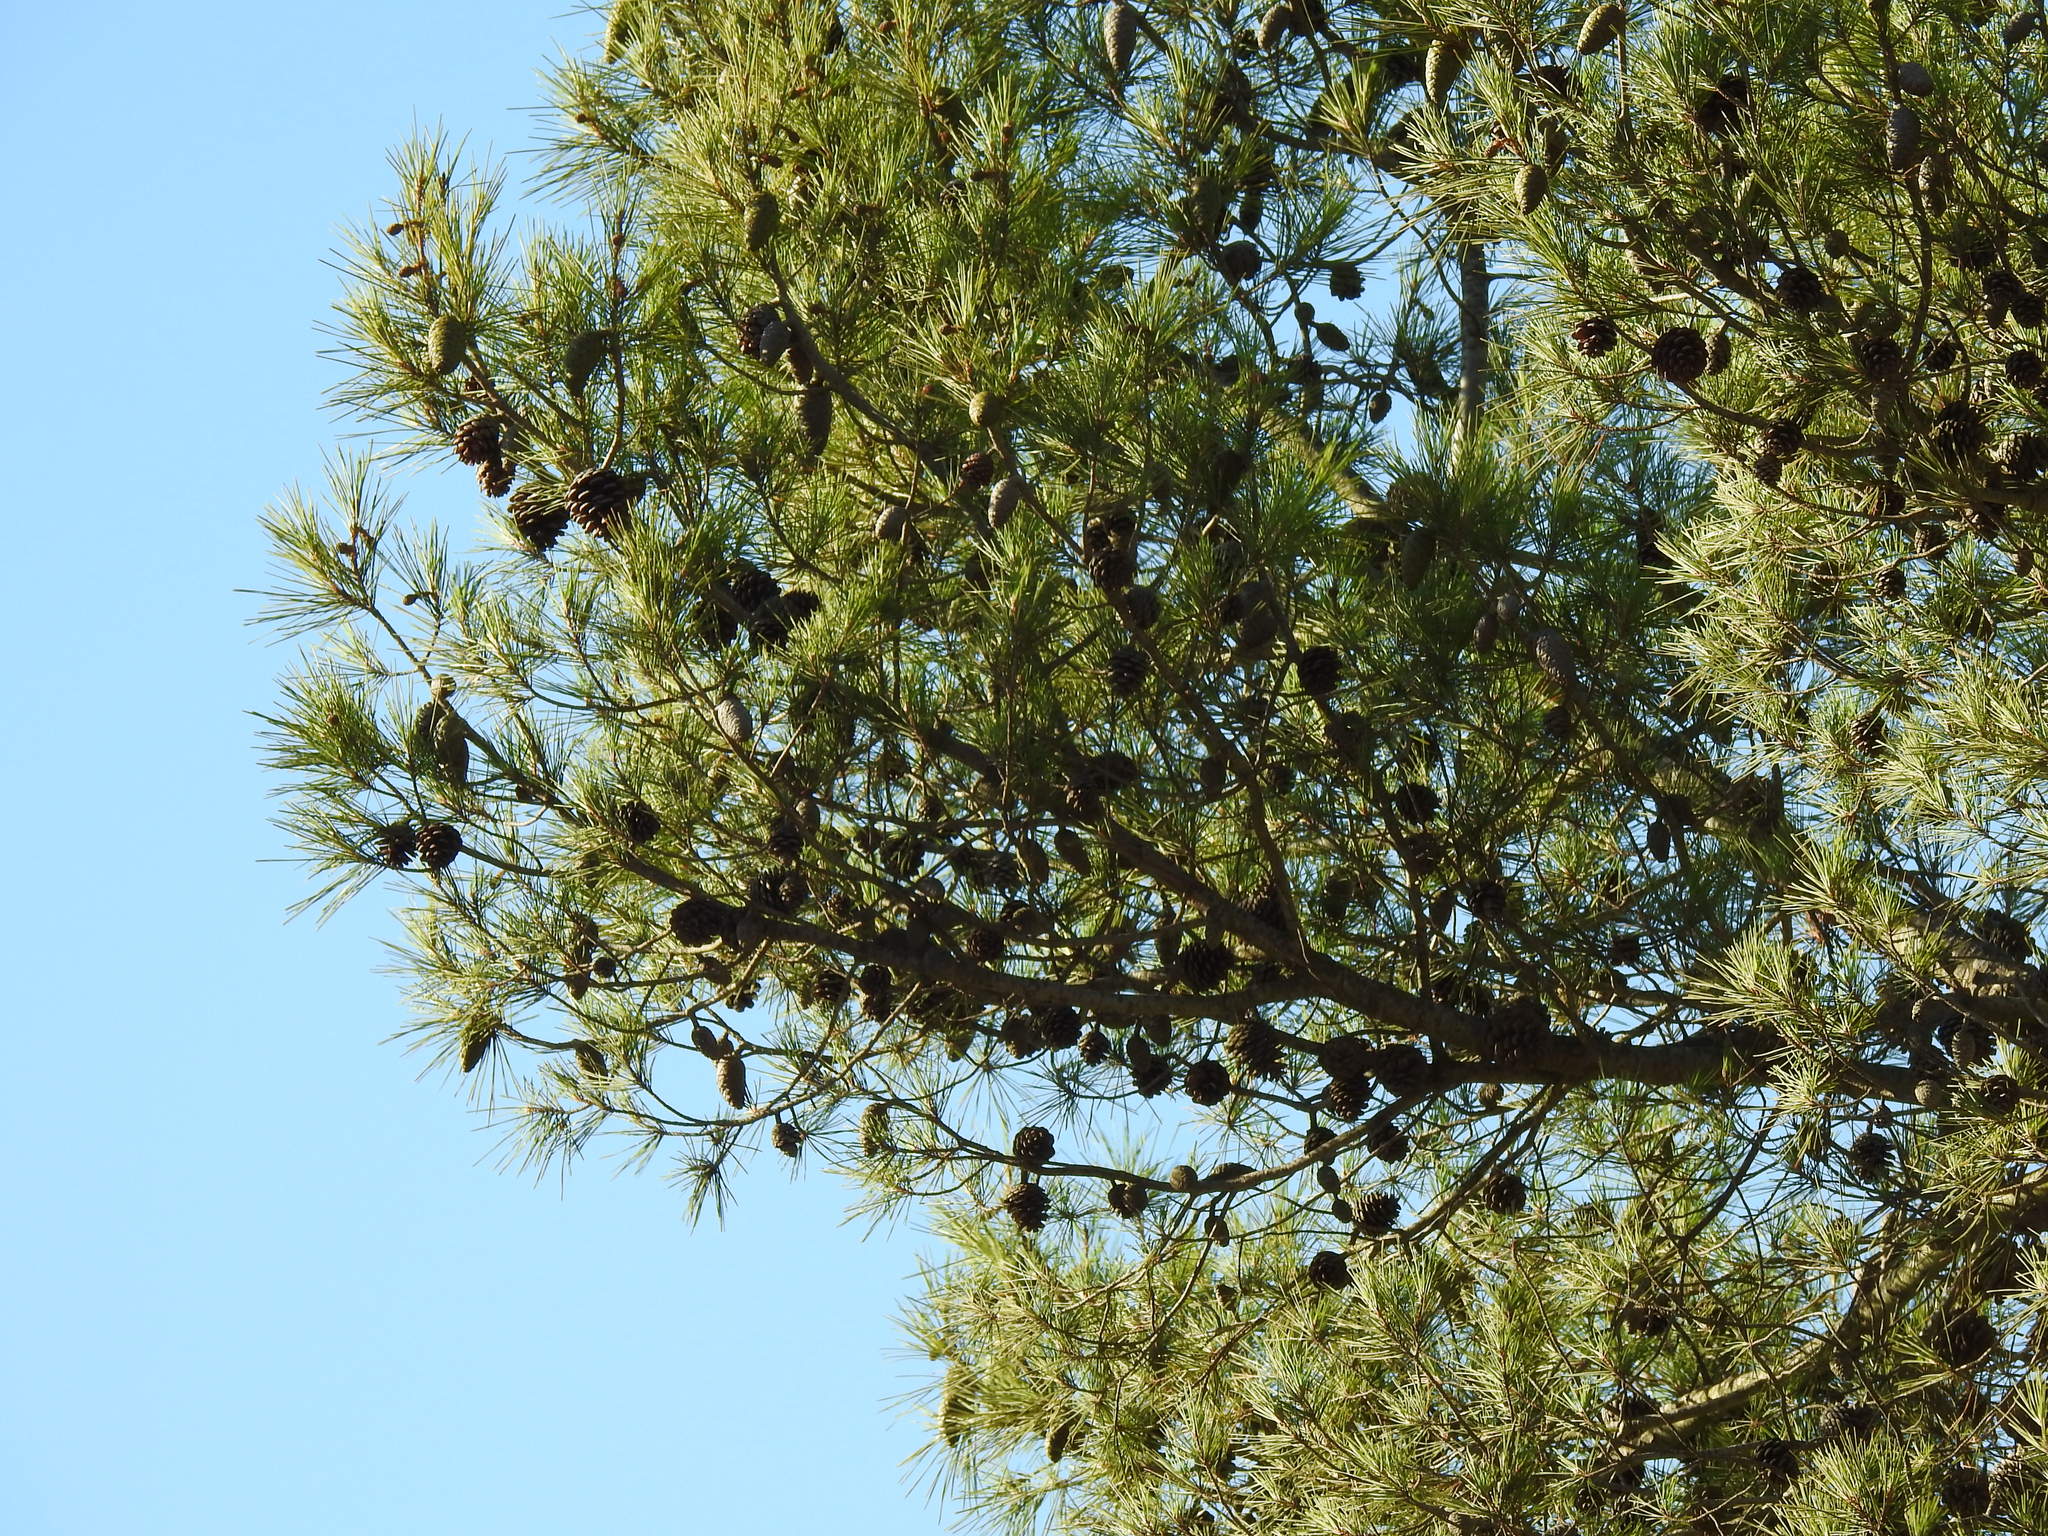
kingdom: Plantae
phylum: Tracheophyta
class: Pinopsida
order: Pinales
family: Pinaceae
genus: Pinus
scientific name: Pinus halepensis
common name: Aleppo pine
